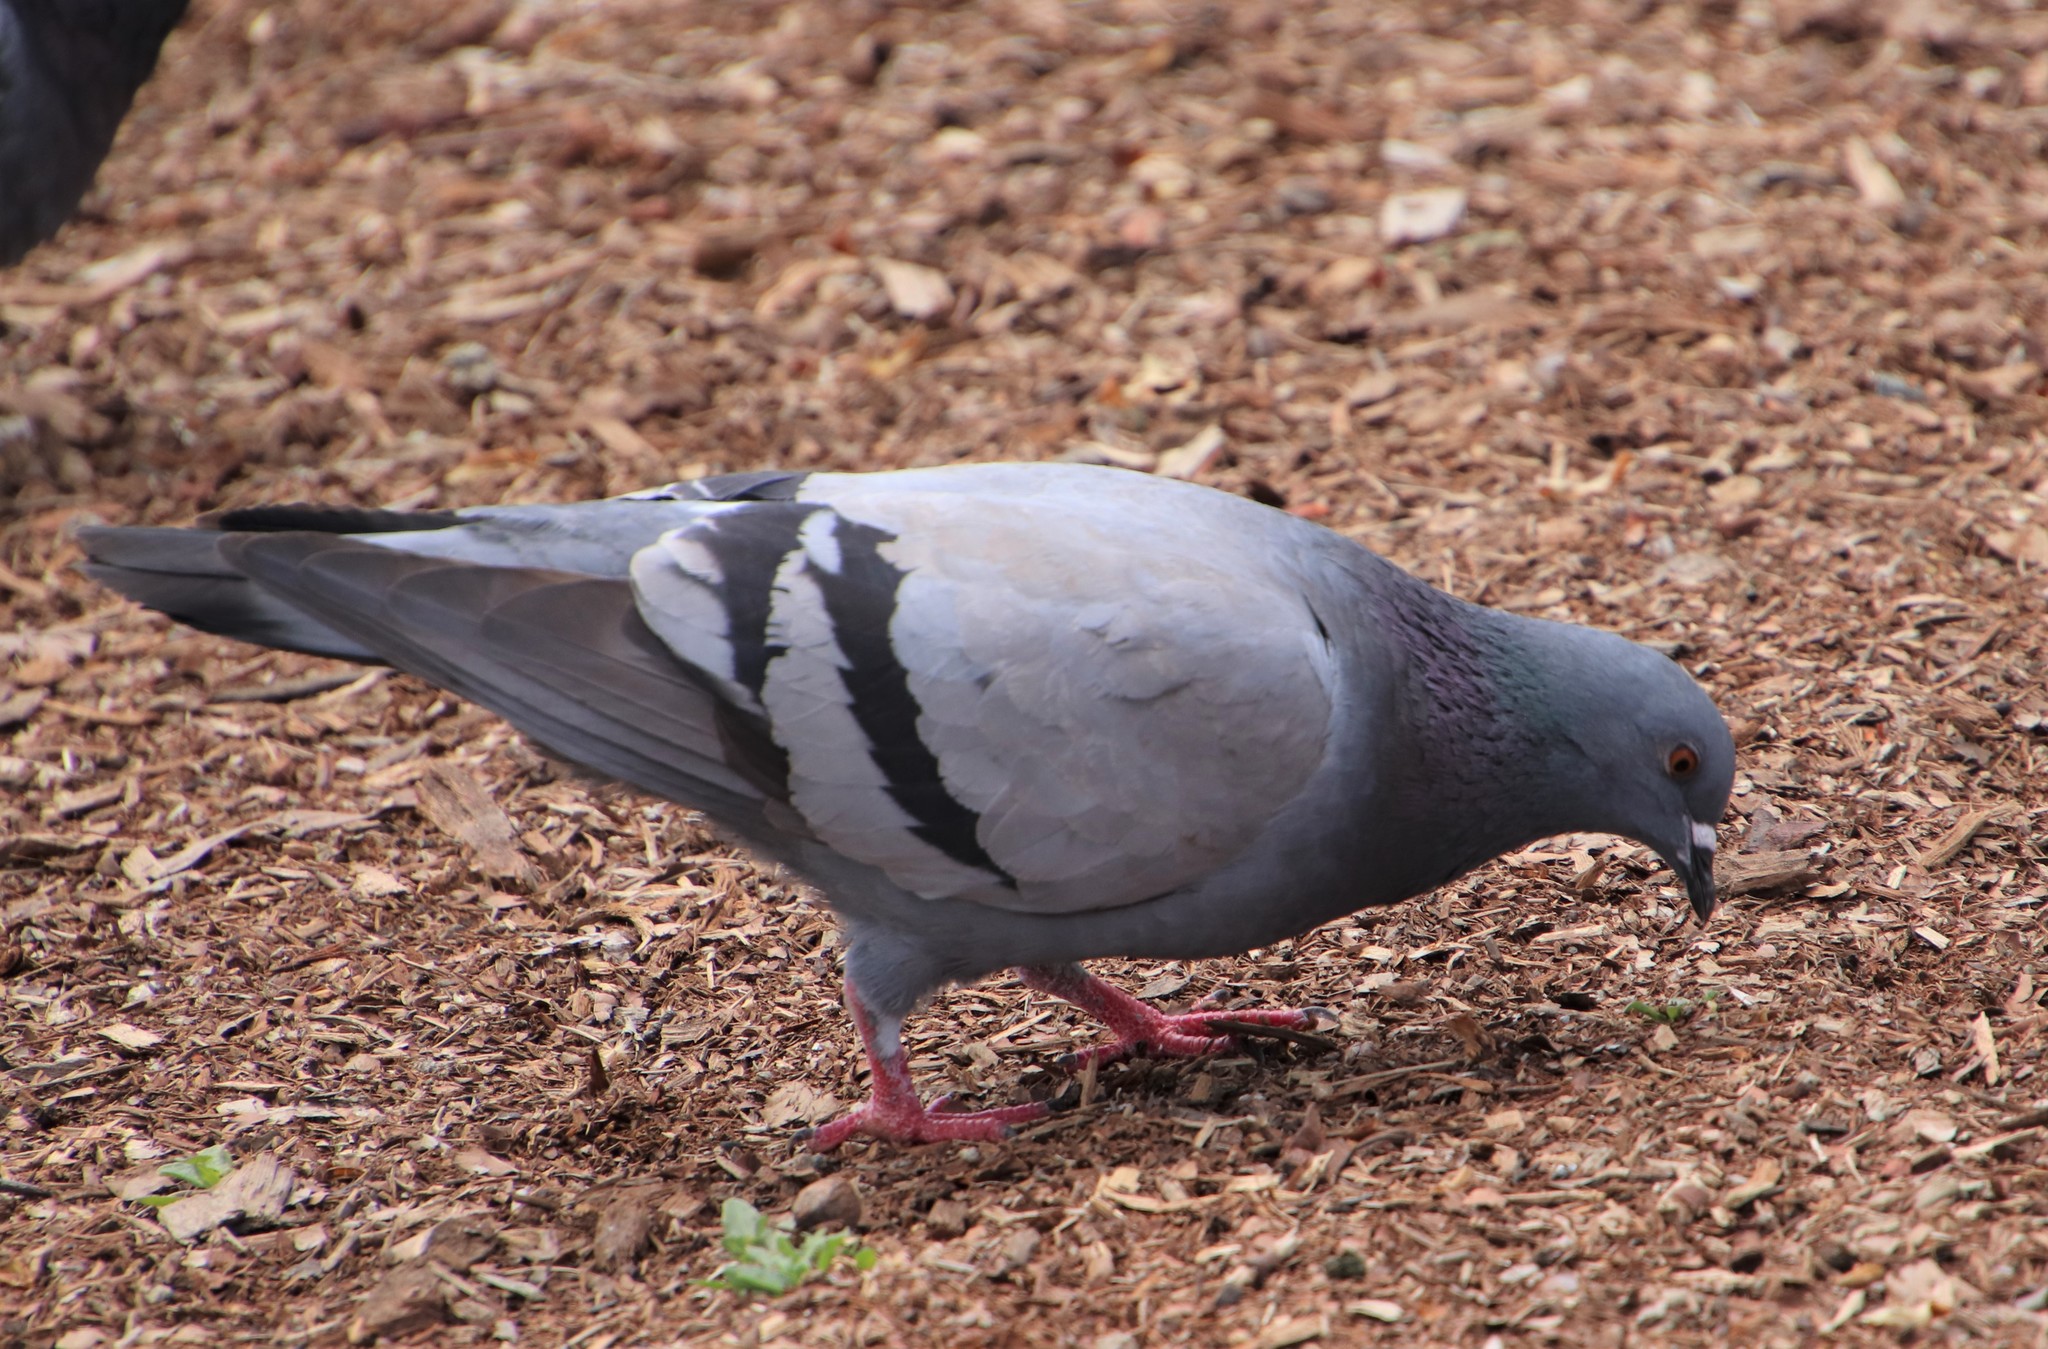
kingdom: Animalia
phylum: Chordata
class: Aves
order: Columbiformes
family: Columbidae
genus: Columba
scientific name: Columba livia
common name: Rock pigeon
